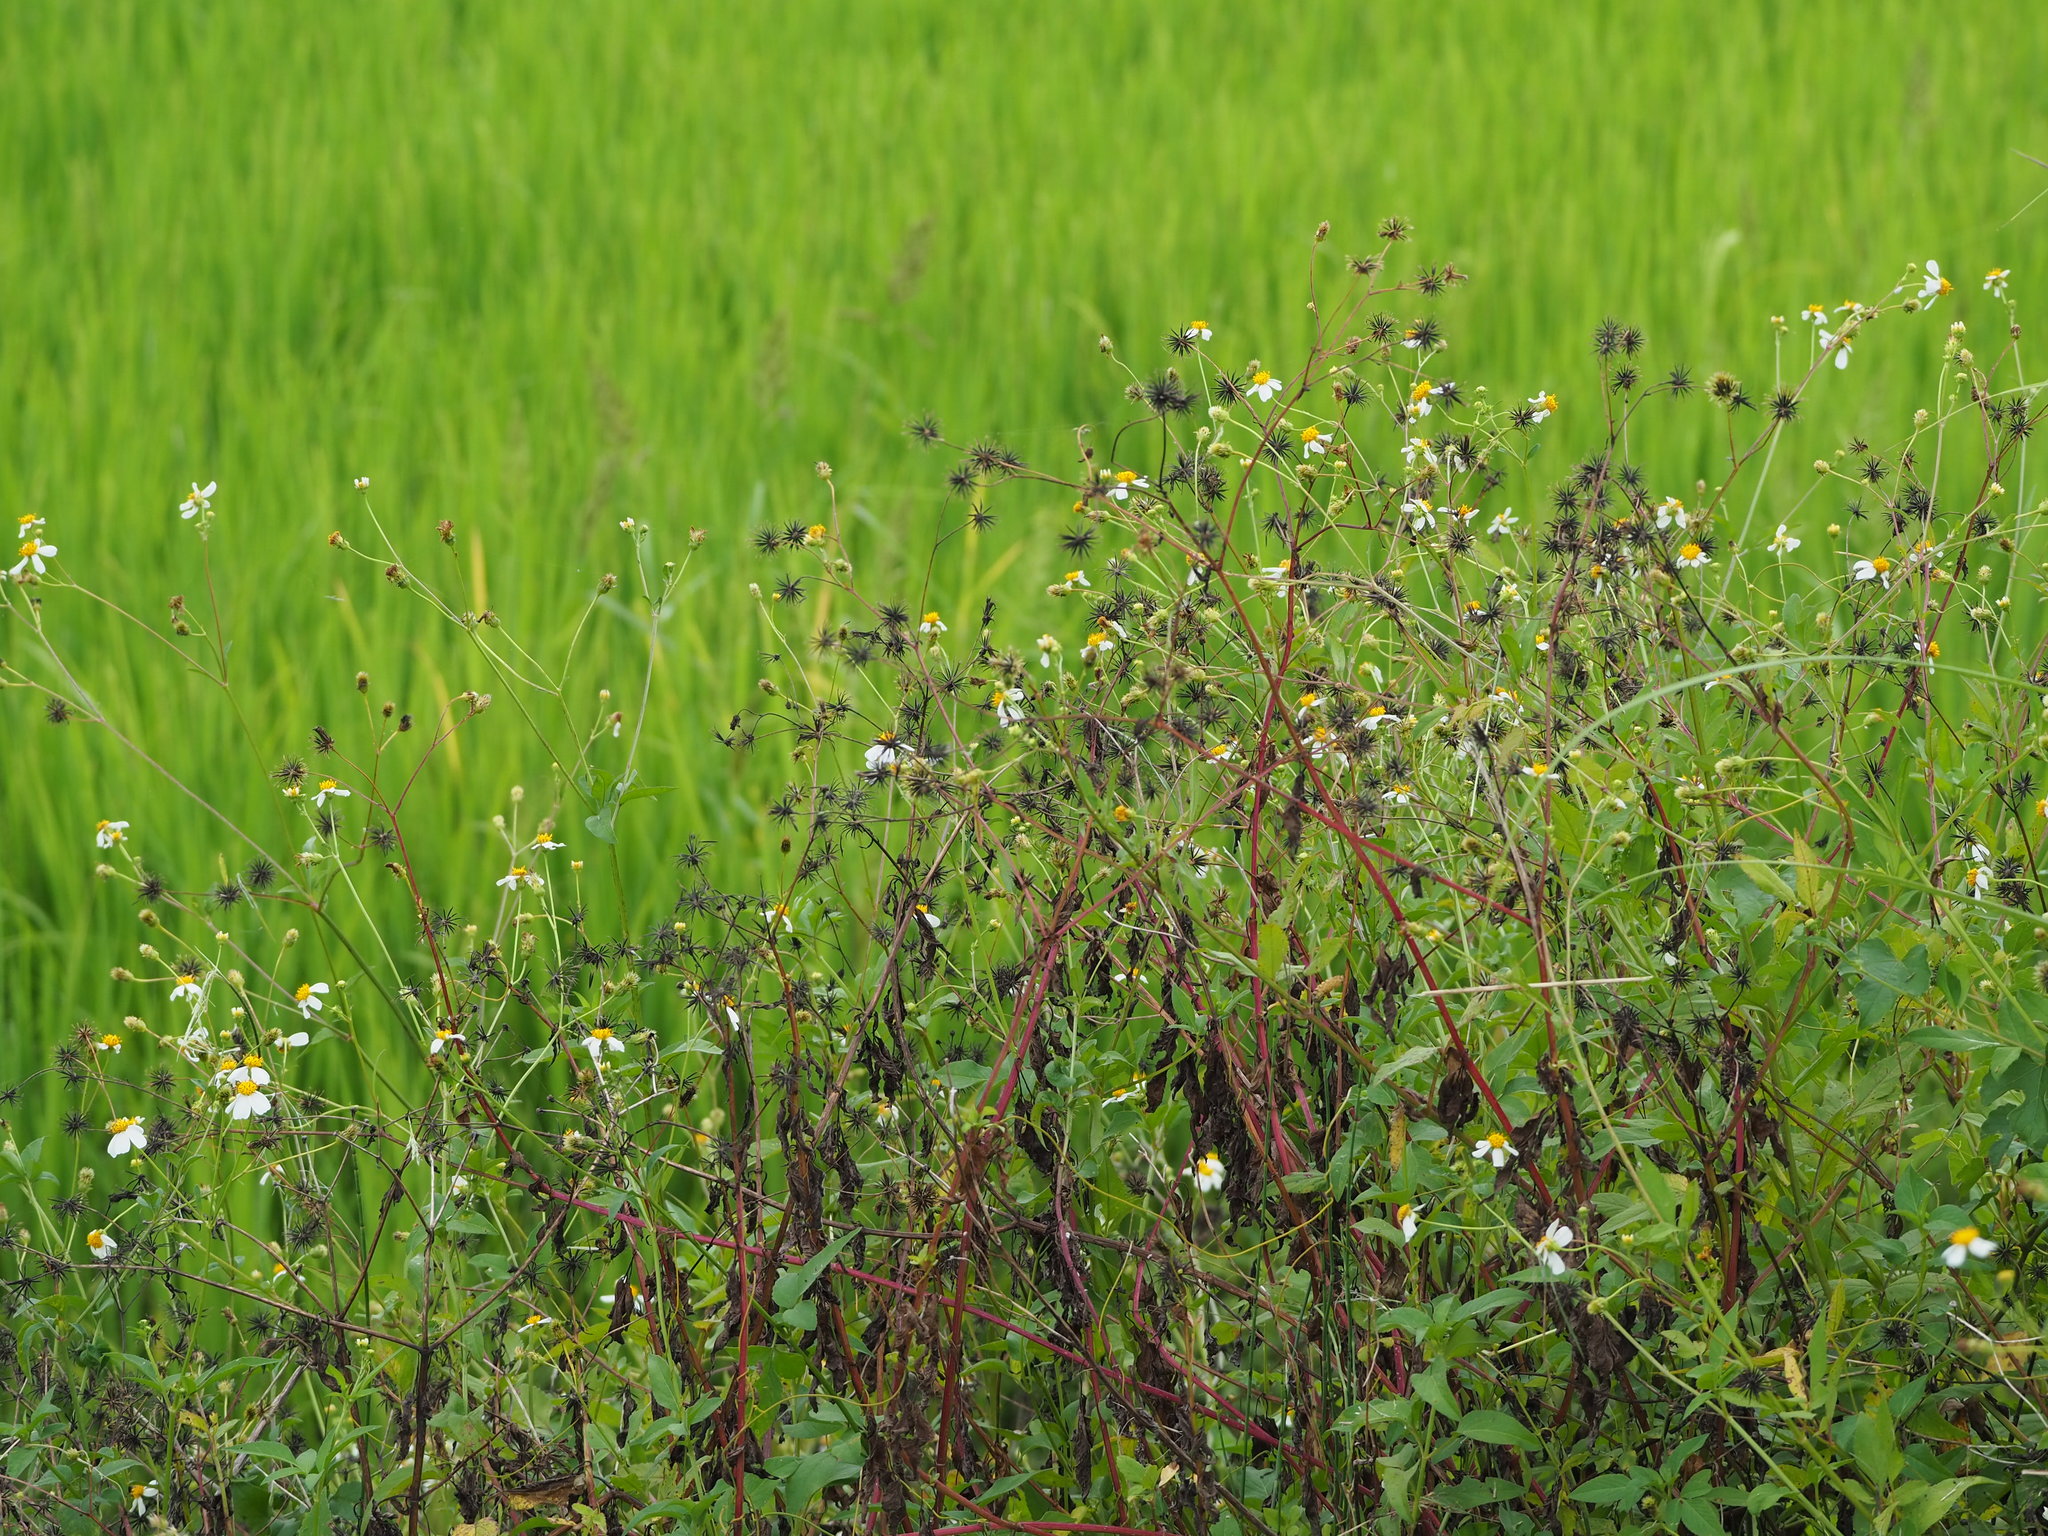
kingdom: Plantae
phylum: Tracheophyta
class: Magnoliopsida
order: Asterales
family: Asteraceae
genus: Bidens
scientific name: Bidens alba
